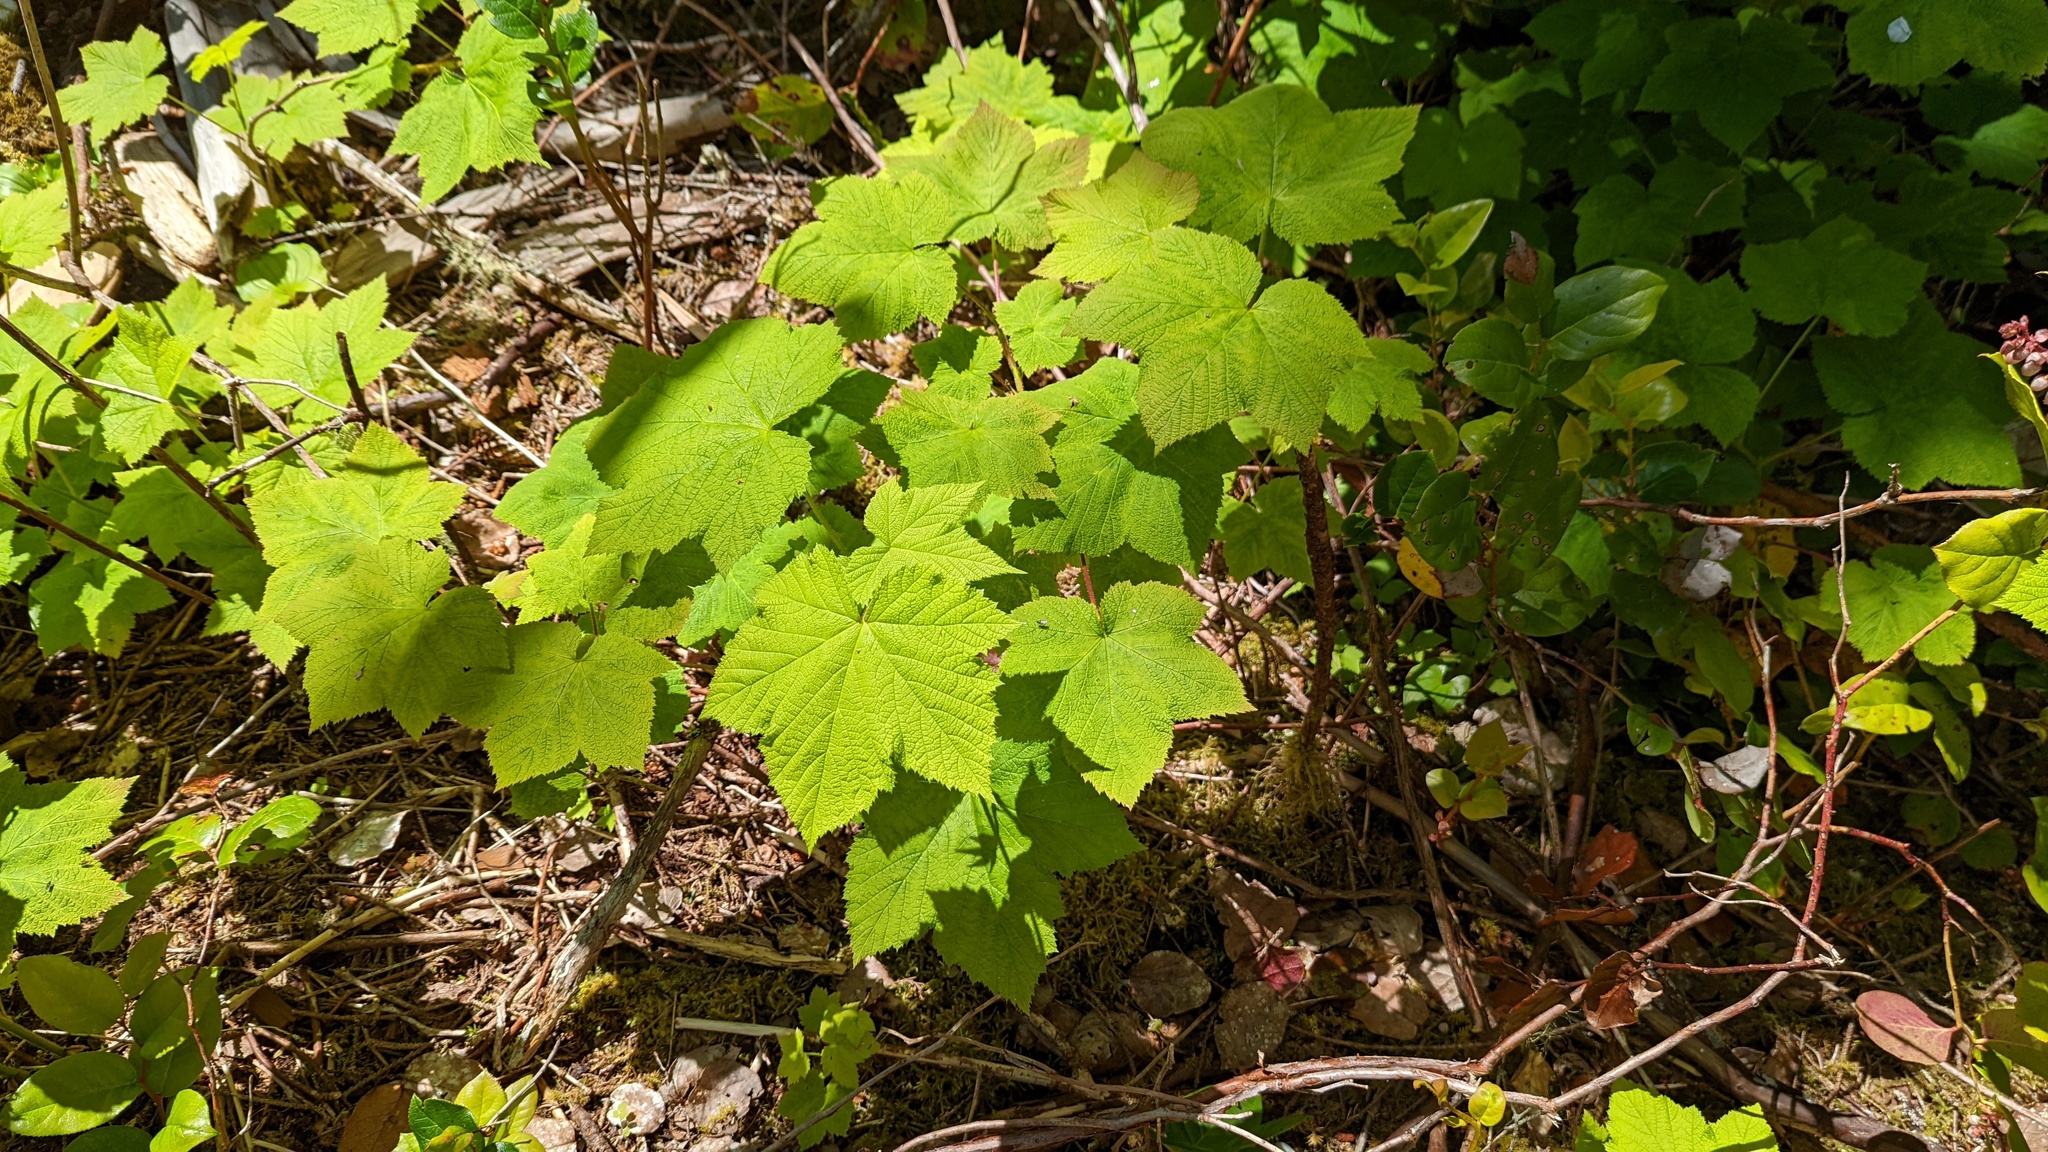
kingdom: Plantae
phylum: Tracheophyta
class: Magnoliopsida
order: Rosales
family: Rosaceae
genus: Rubus
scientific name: Rubus parviflorus
